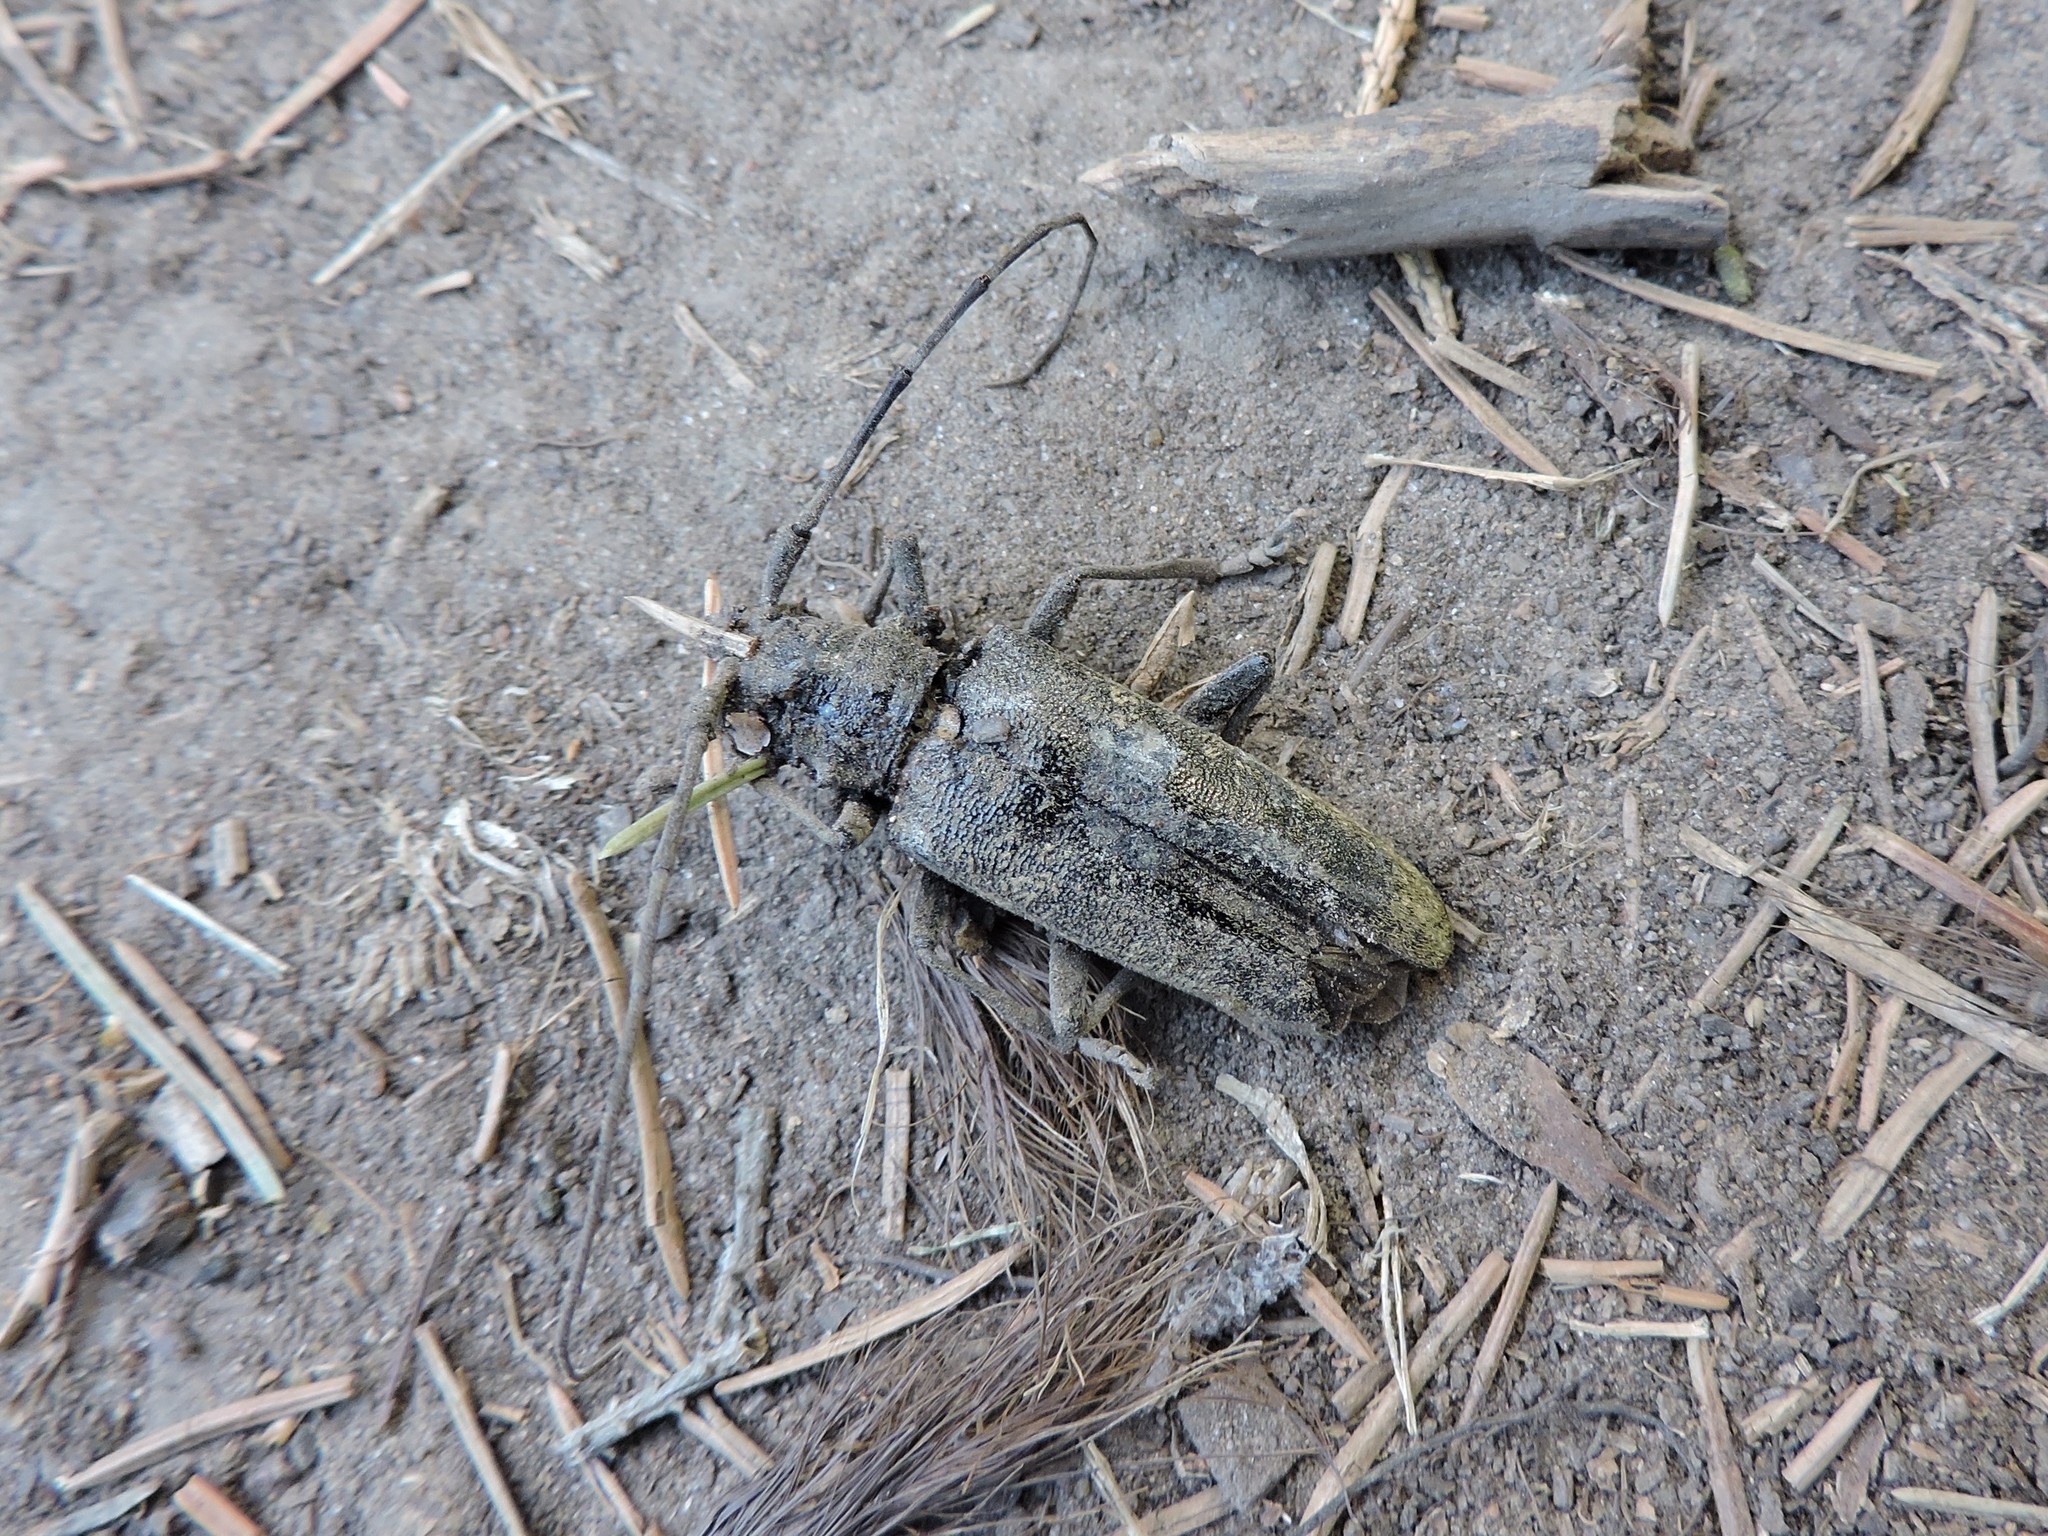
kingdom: Animalia
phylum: Arthropoda
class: Insecta
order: Coleoptera
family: Cerambycidae
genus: Monochamus
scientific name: Monochamus urussovii
